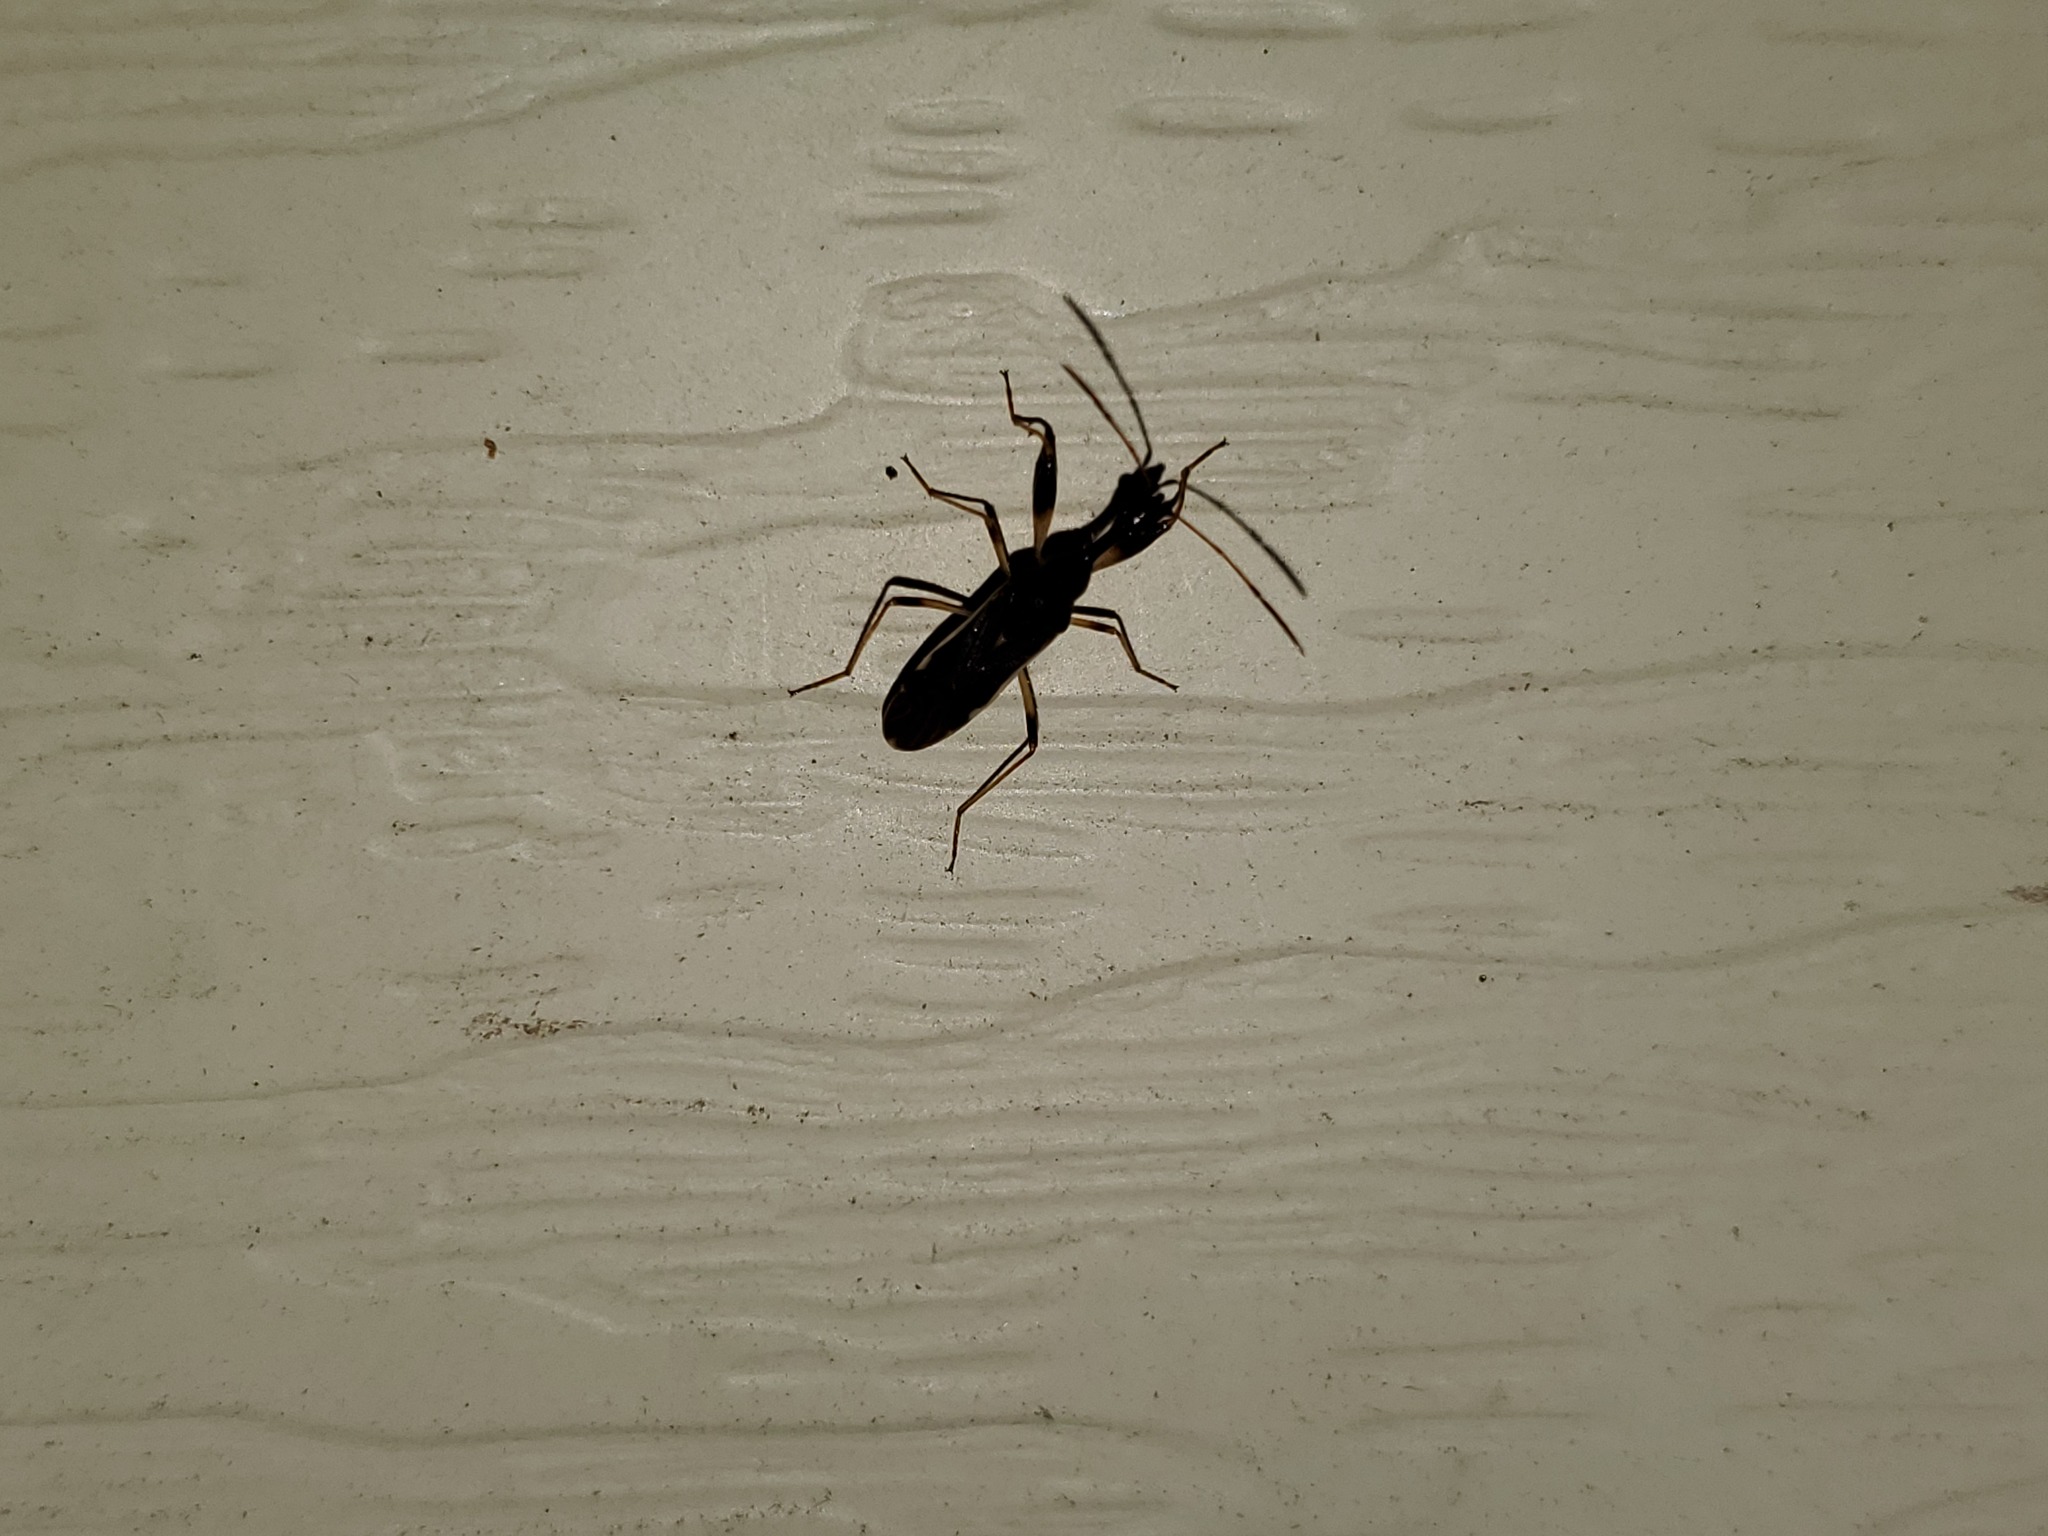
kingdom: Animalia
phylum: Arthropoda
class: Insecta
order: Hemiptera
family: Rhyparochromidae
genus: Myodocha
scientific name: Myodocha serripes
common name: Long-necked seed bug
